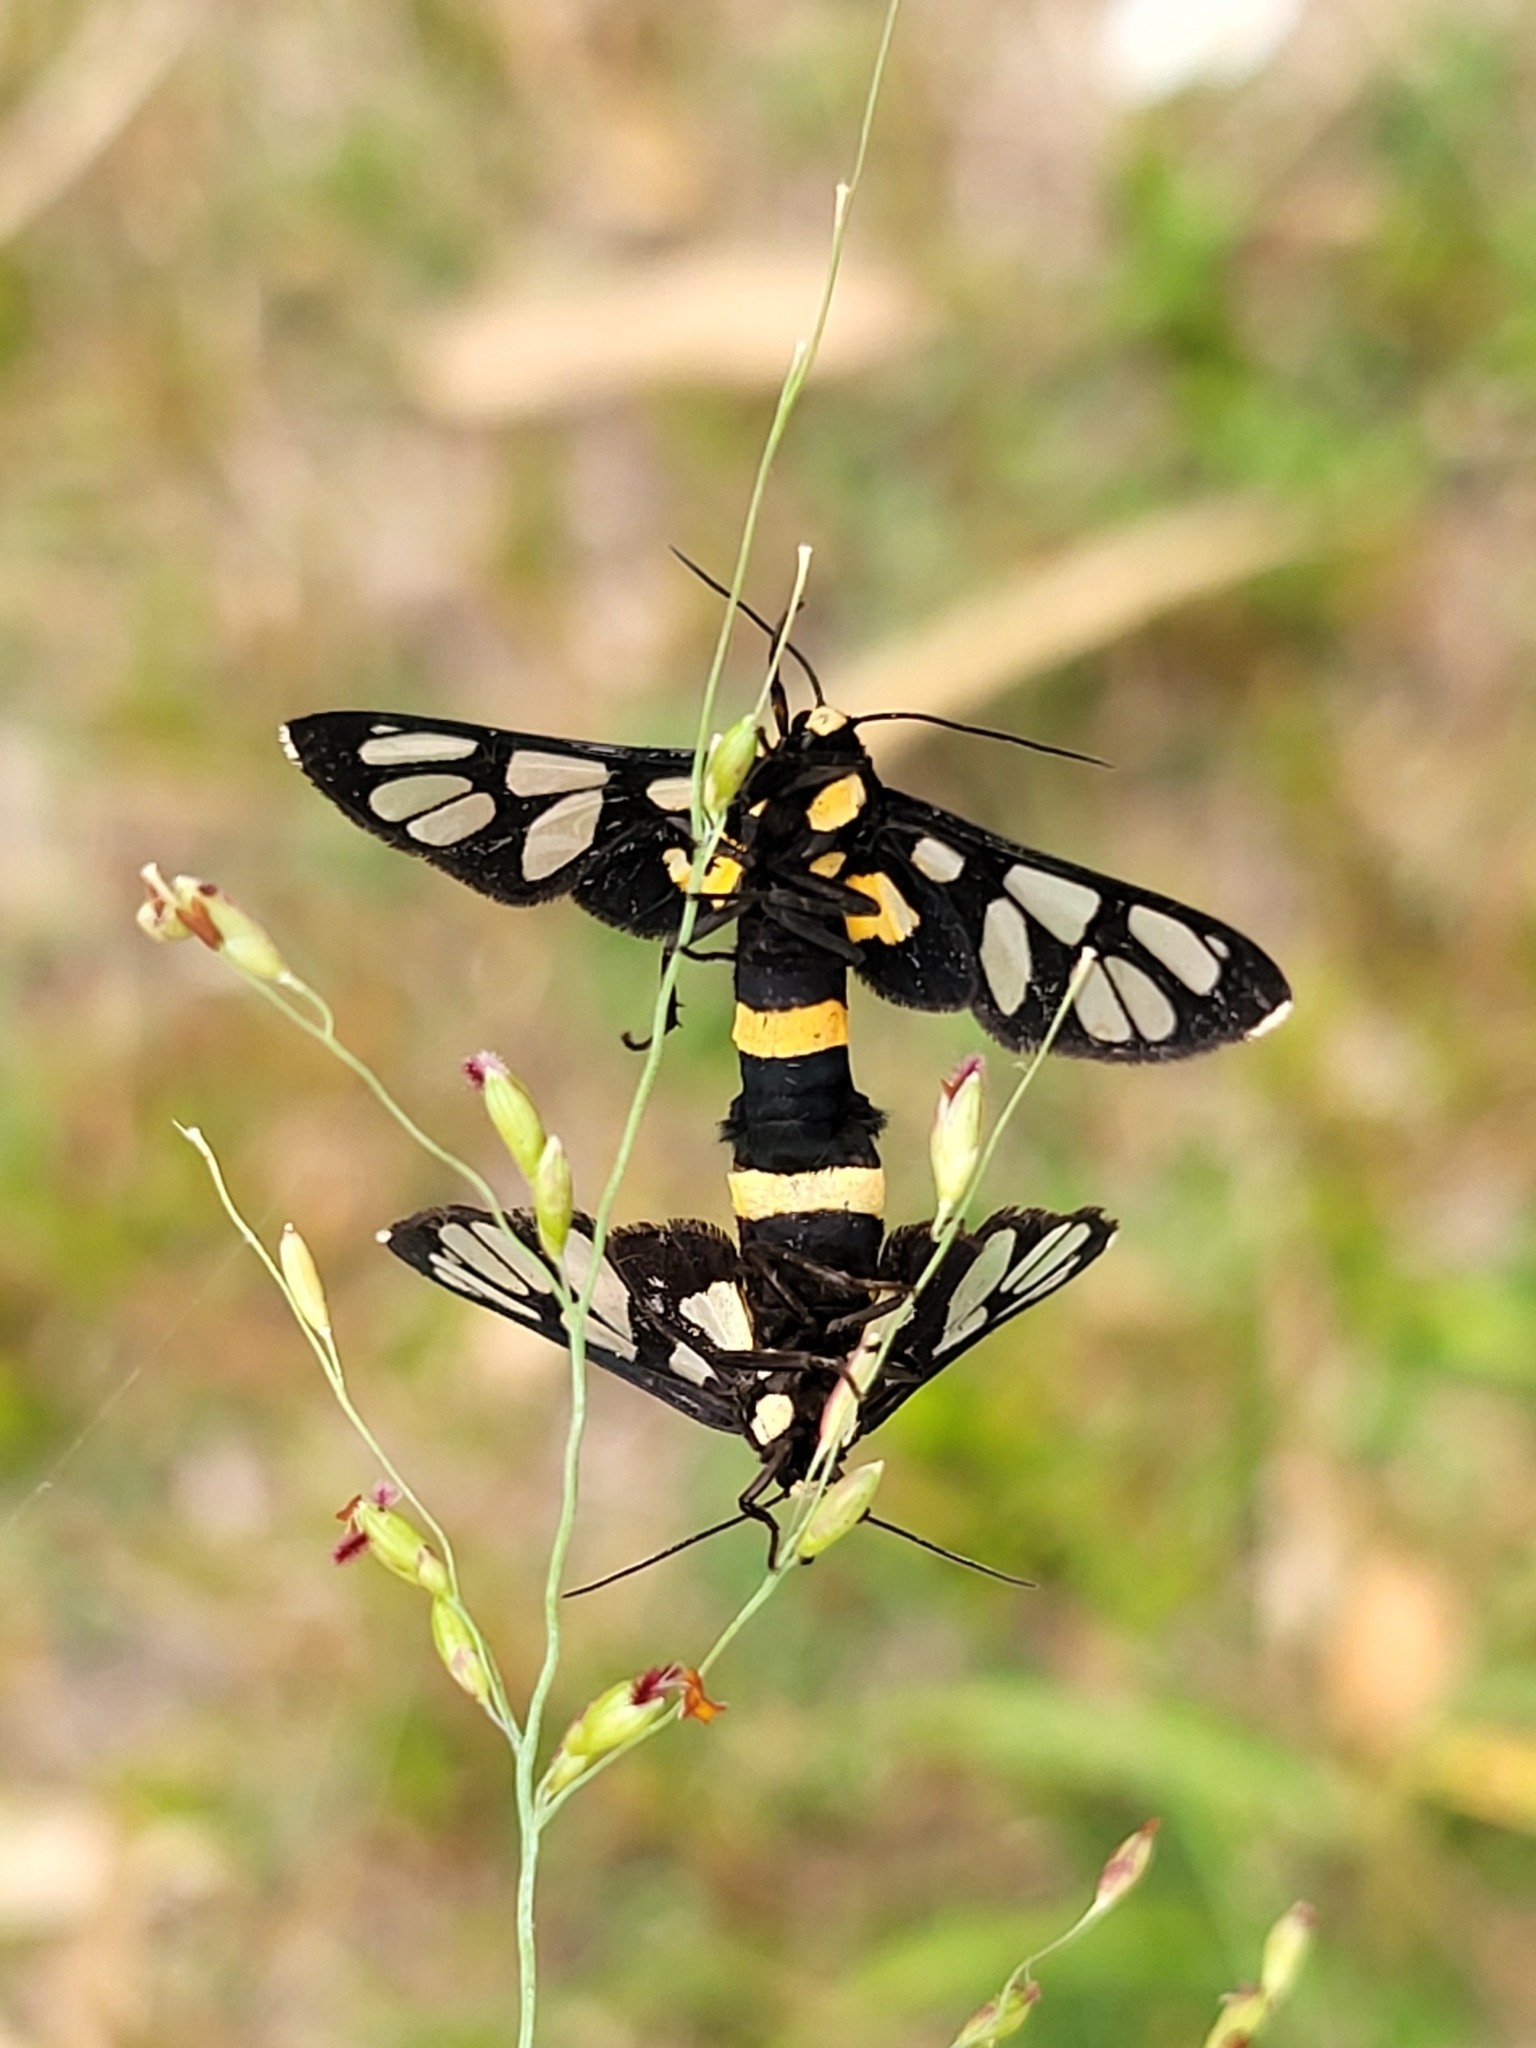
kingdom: Animalia
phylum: Arthropoda
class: Insecta
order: Lepidoptera
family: Erebidae
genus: Amata
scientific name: Amata sperbius
